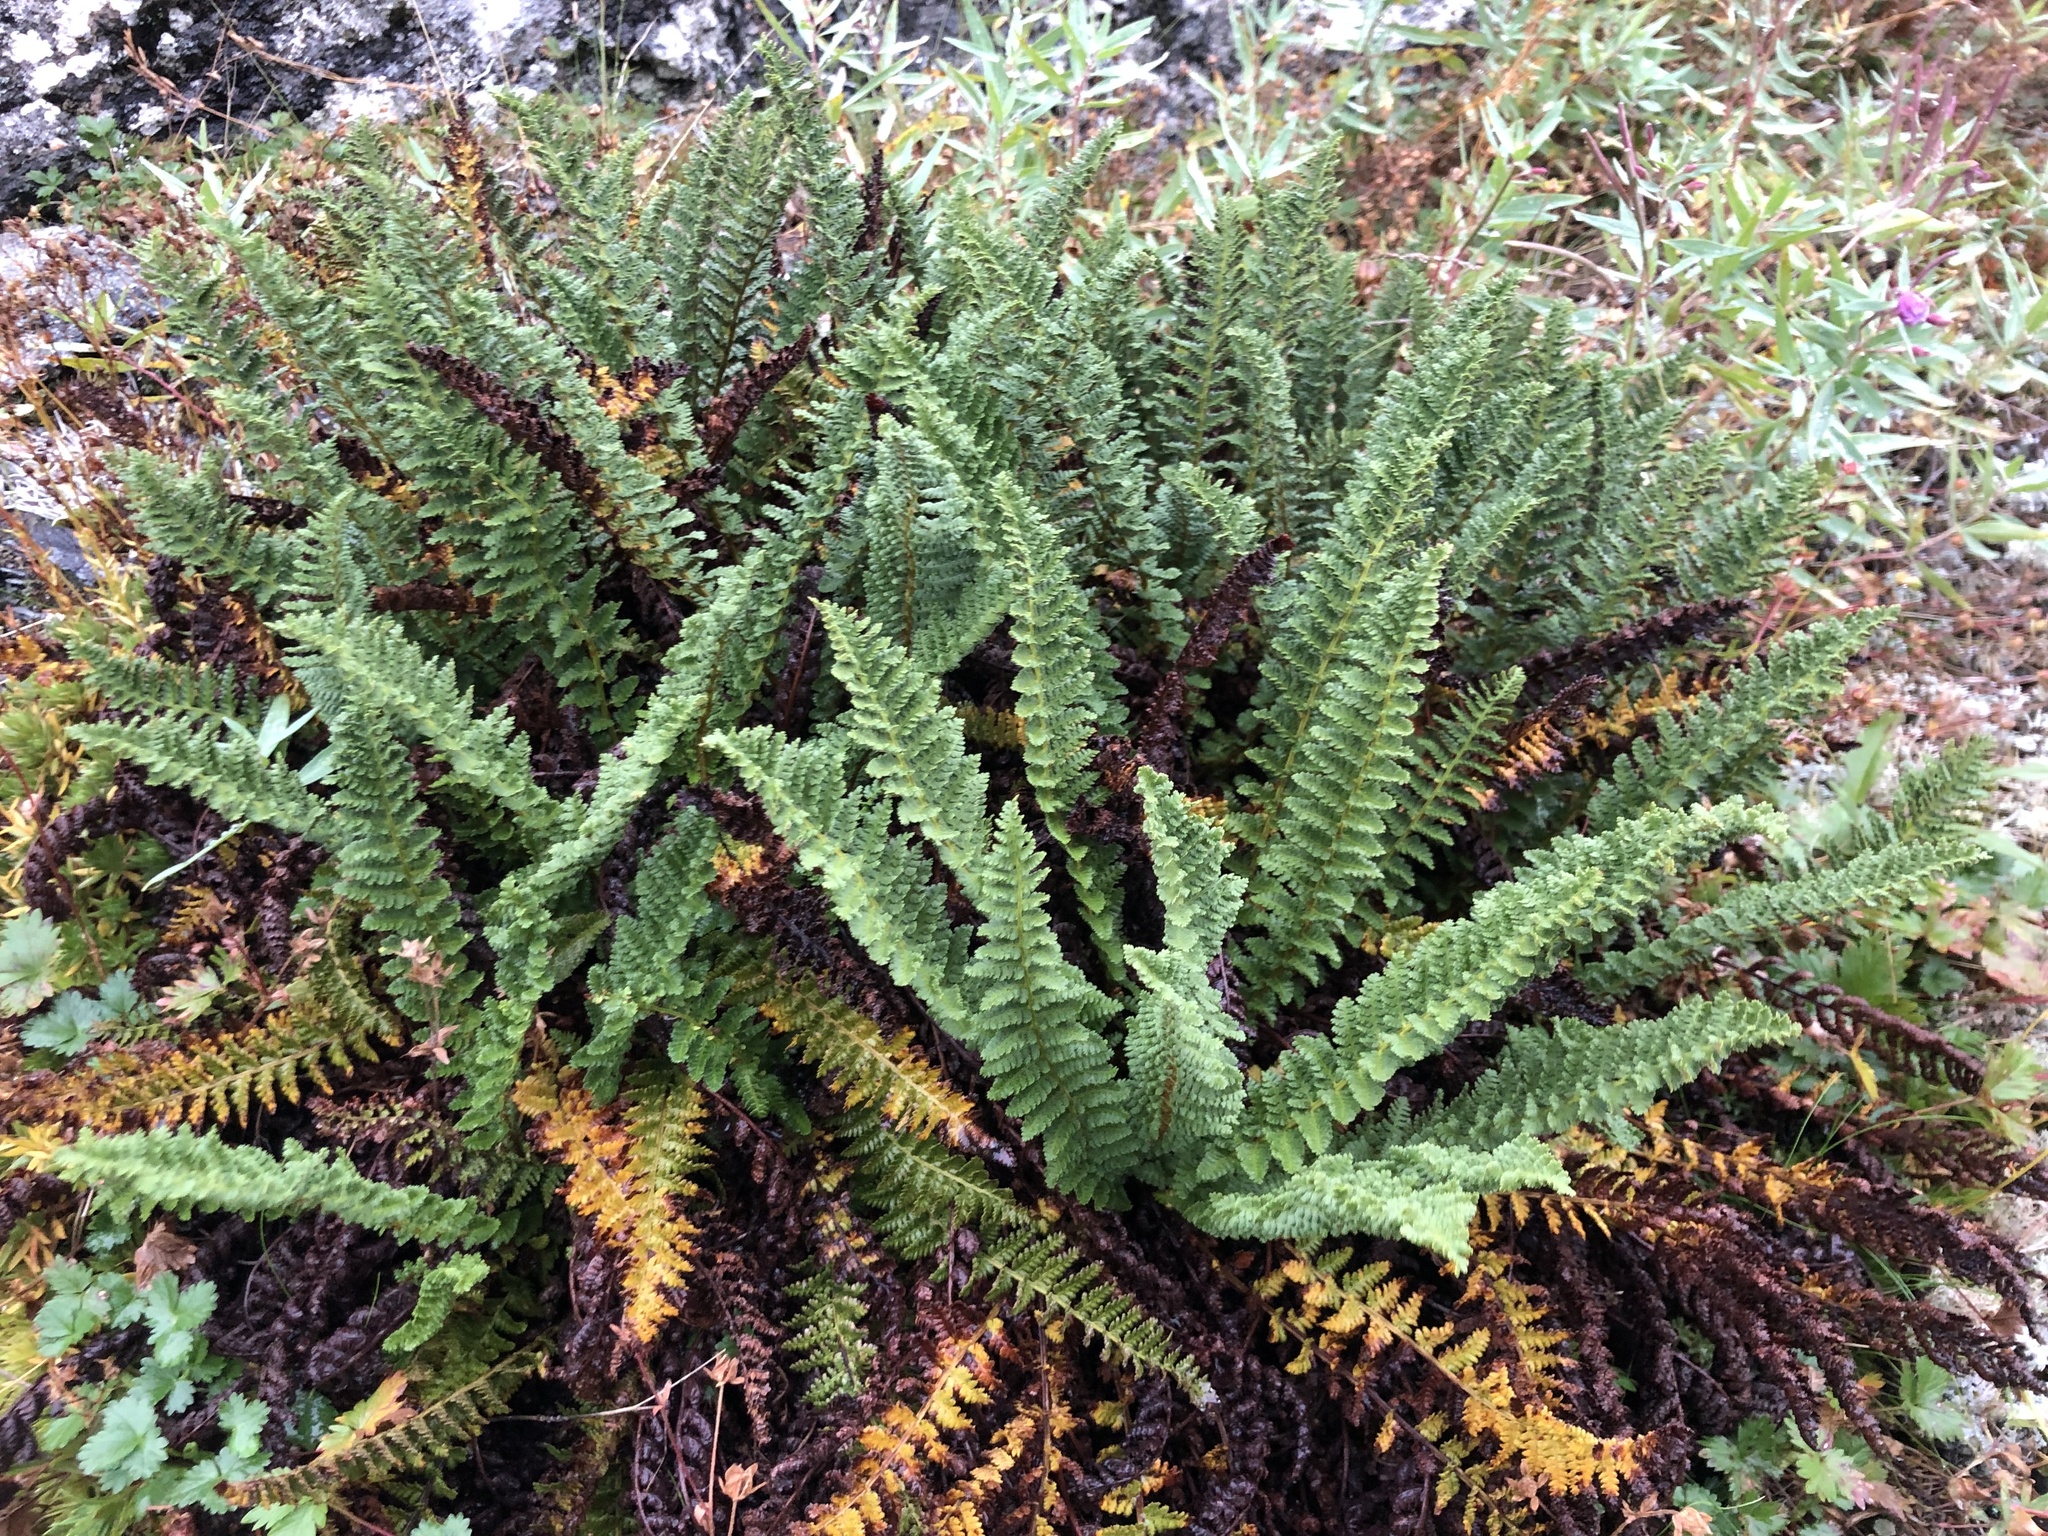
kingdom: Plantae
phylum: Tracheophyta
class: Polypodiopsida
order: Polypodiales
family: Dryopteridaceae
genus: Dryopteris
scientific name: Dryopteris fragrans
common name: Fragrant wood fern
